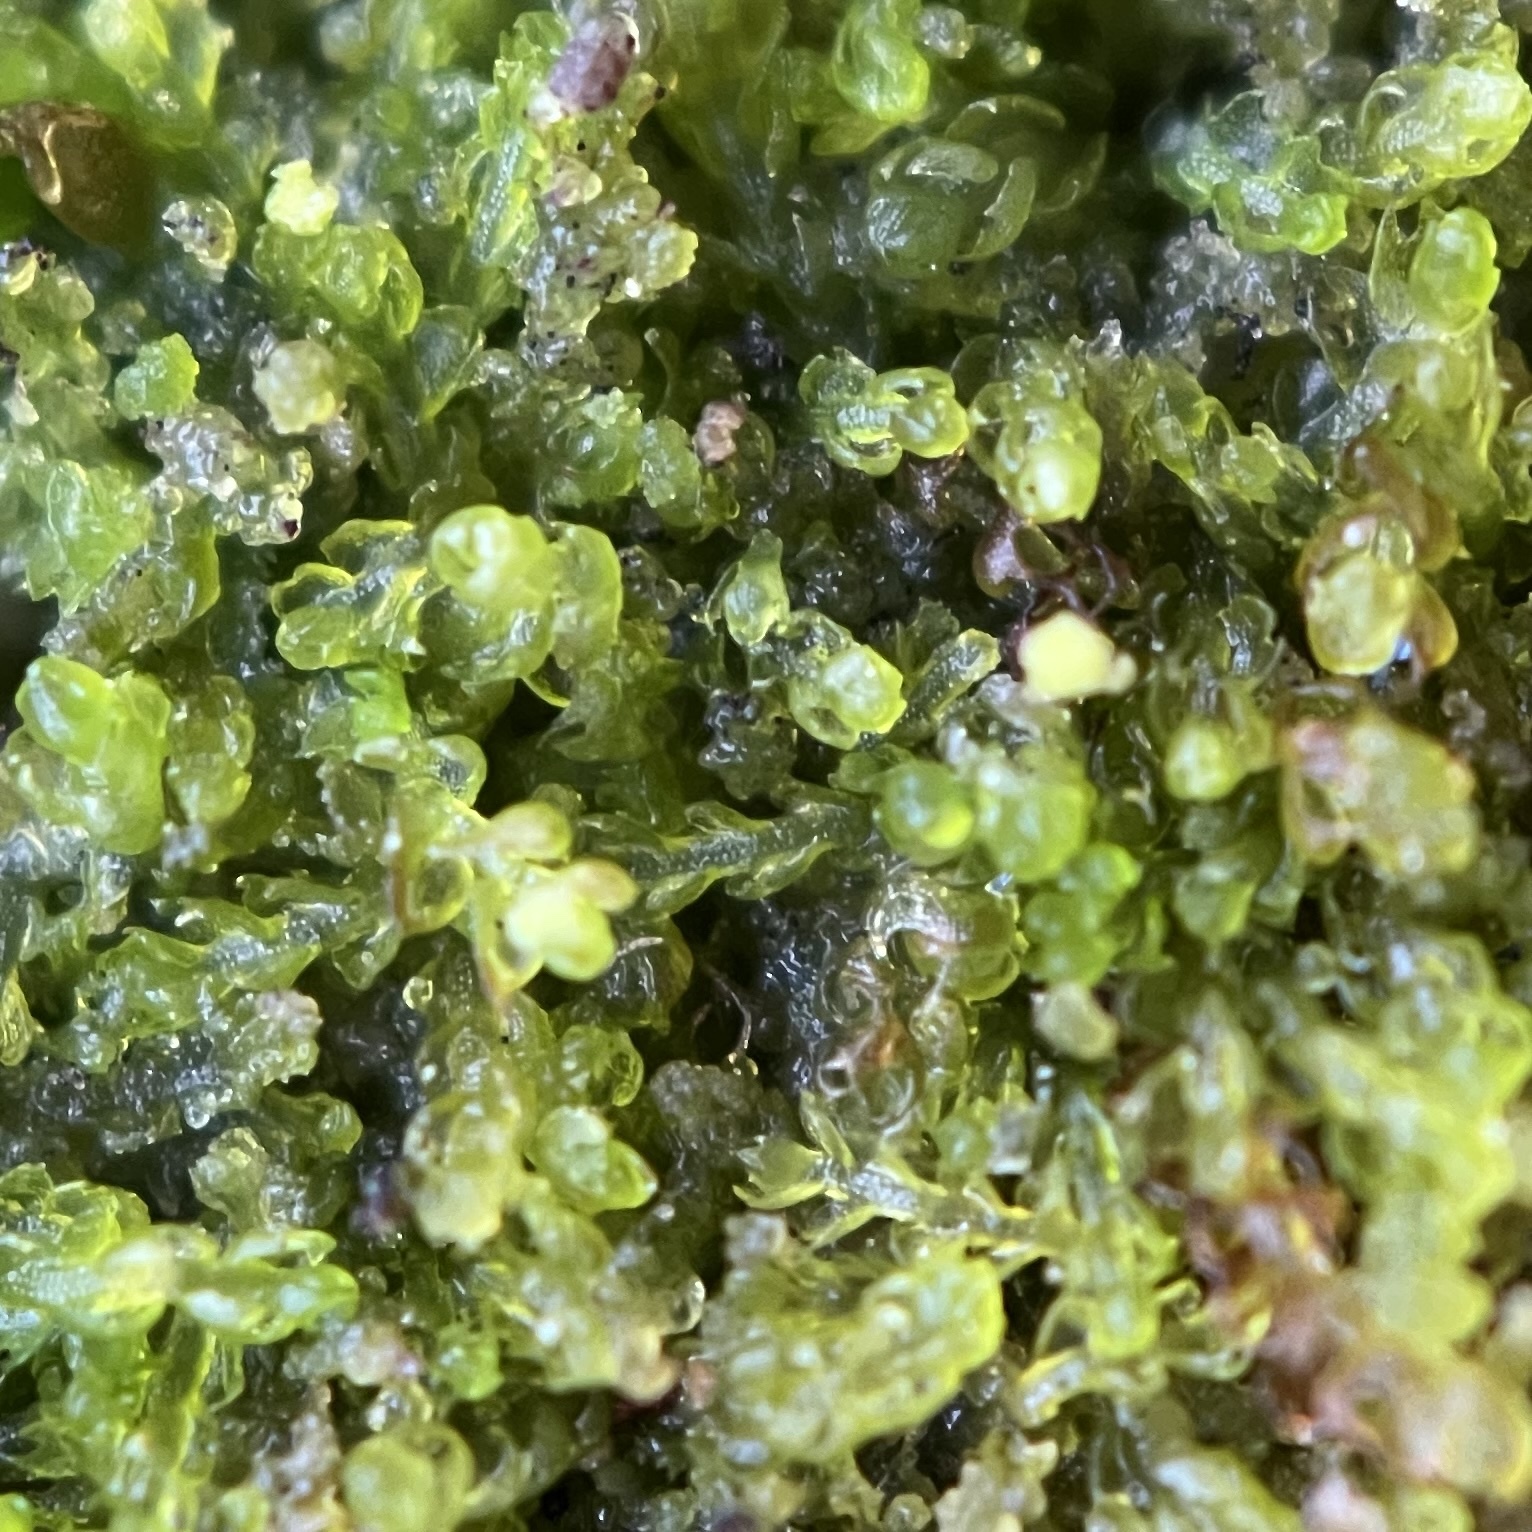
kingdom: Plantae
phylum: Marchantiophyta
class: Jungermanniopsida
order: Jungermanniales
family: Cephaloziaceae
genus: Nowellia
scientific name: Nowellia curvifolia
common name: Wood rustwort
